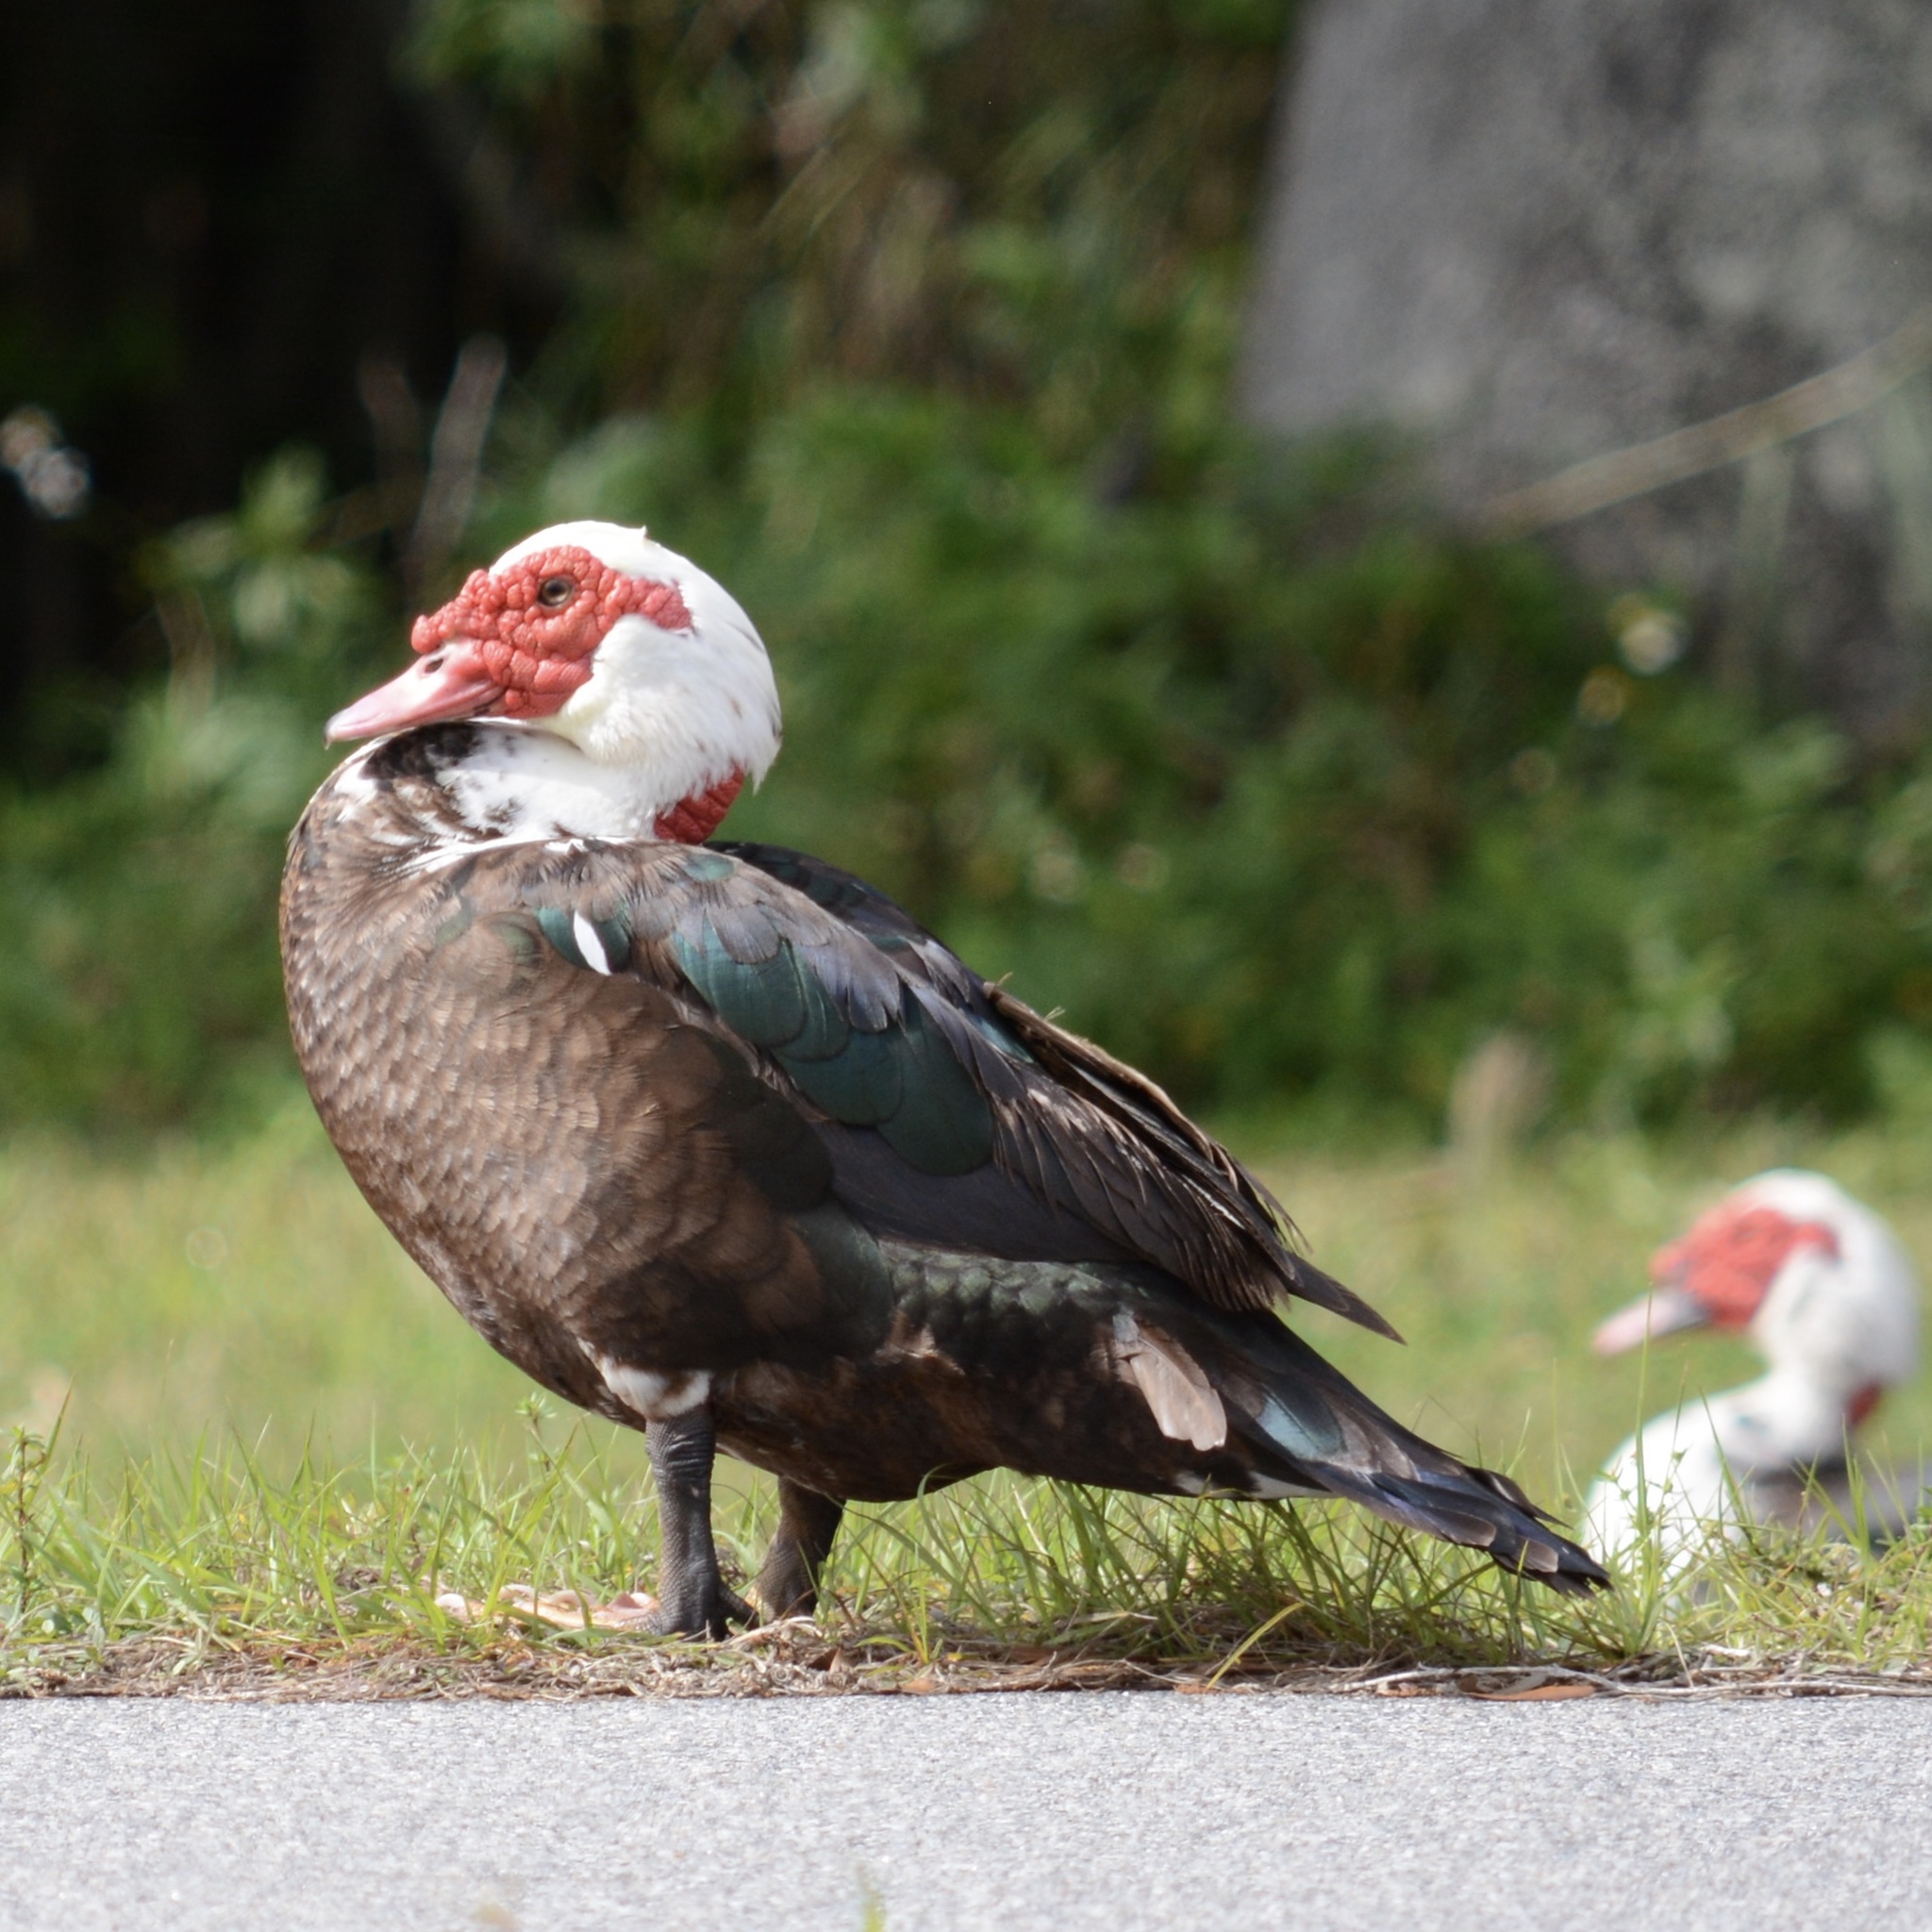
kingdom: Animalia
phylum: Chordata
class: Aves
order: Anseriformes
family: Anatidae
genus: Cairina
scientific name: Cairina moschata
